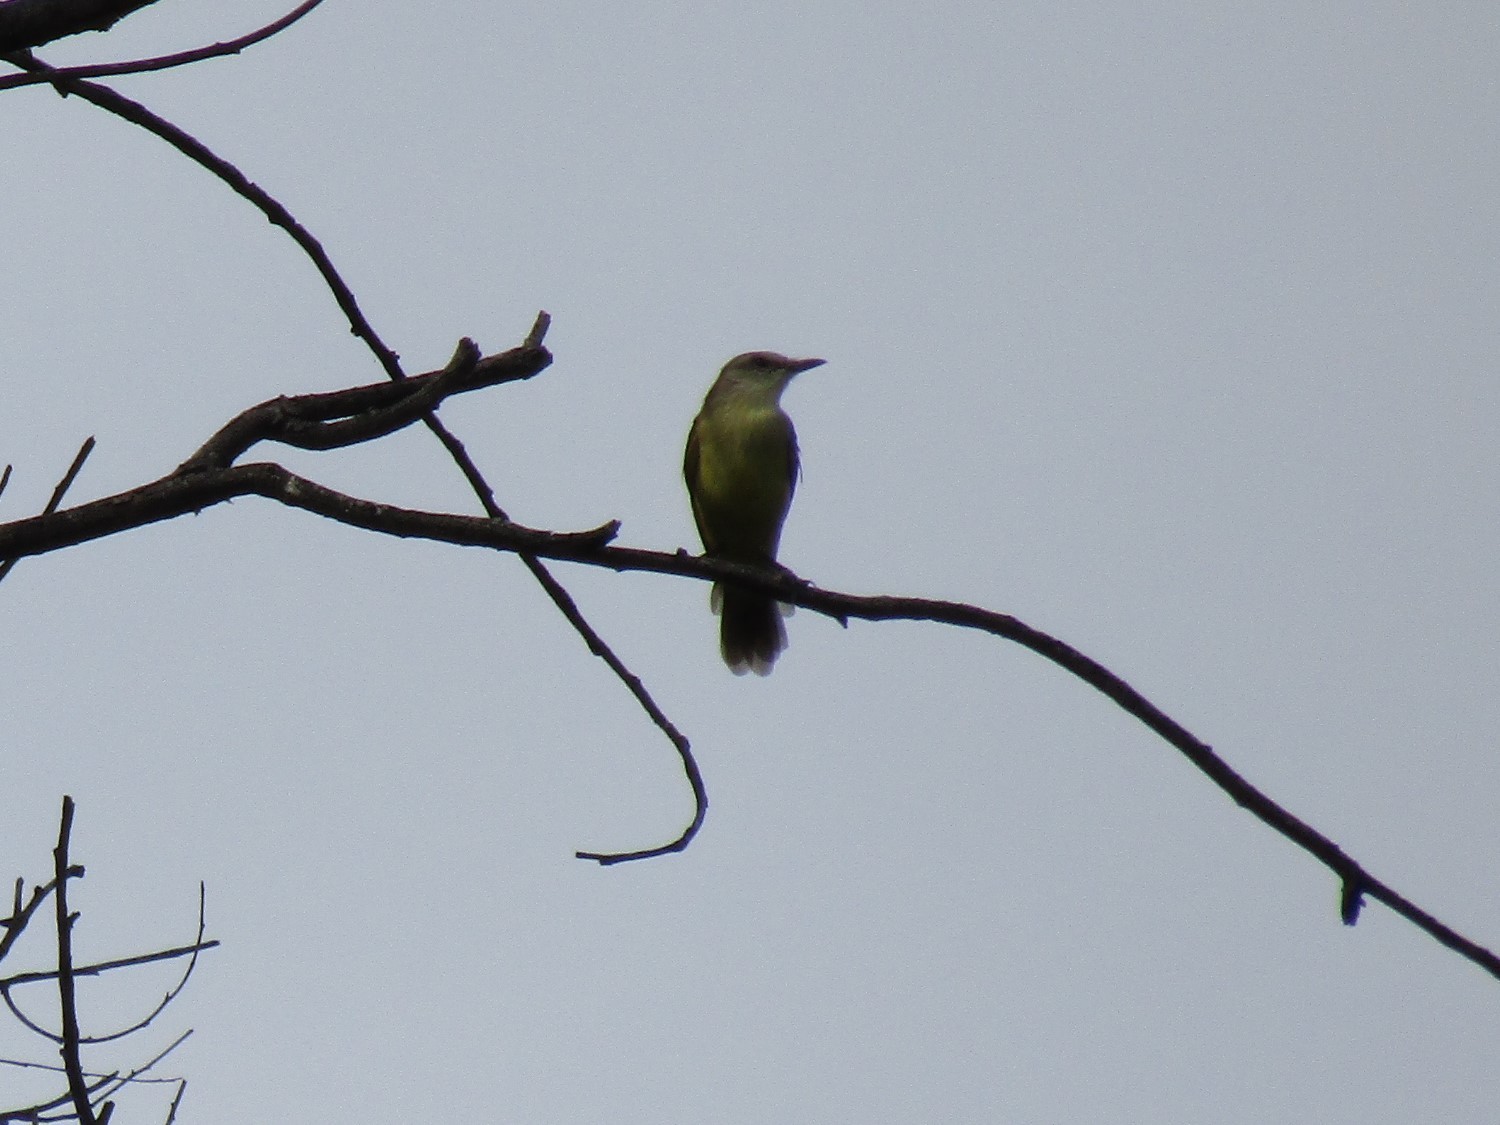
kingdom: Animalia
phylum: Chordata
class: Aves
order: Passeriformes
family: Tyrannidae
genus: Machetornis
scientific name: Machetornis rixosa
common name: Cattle tyrant
